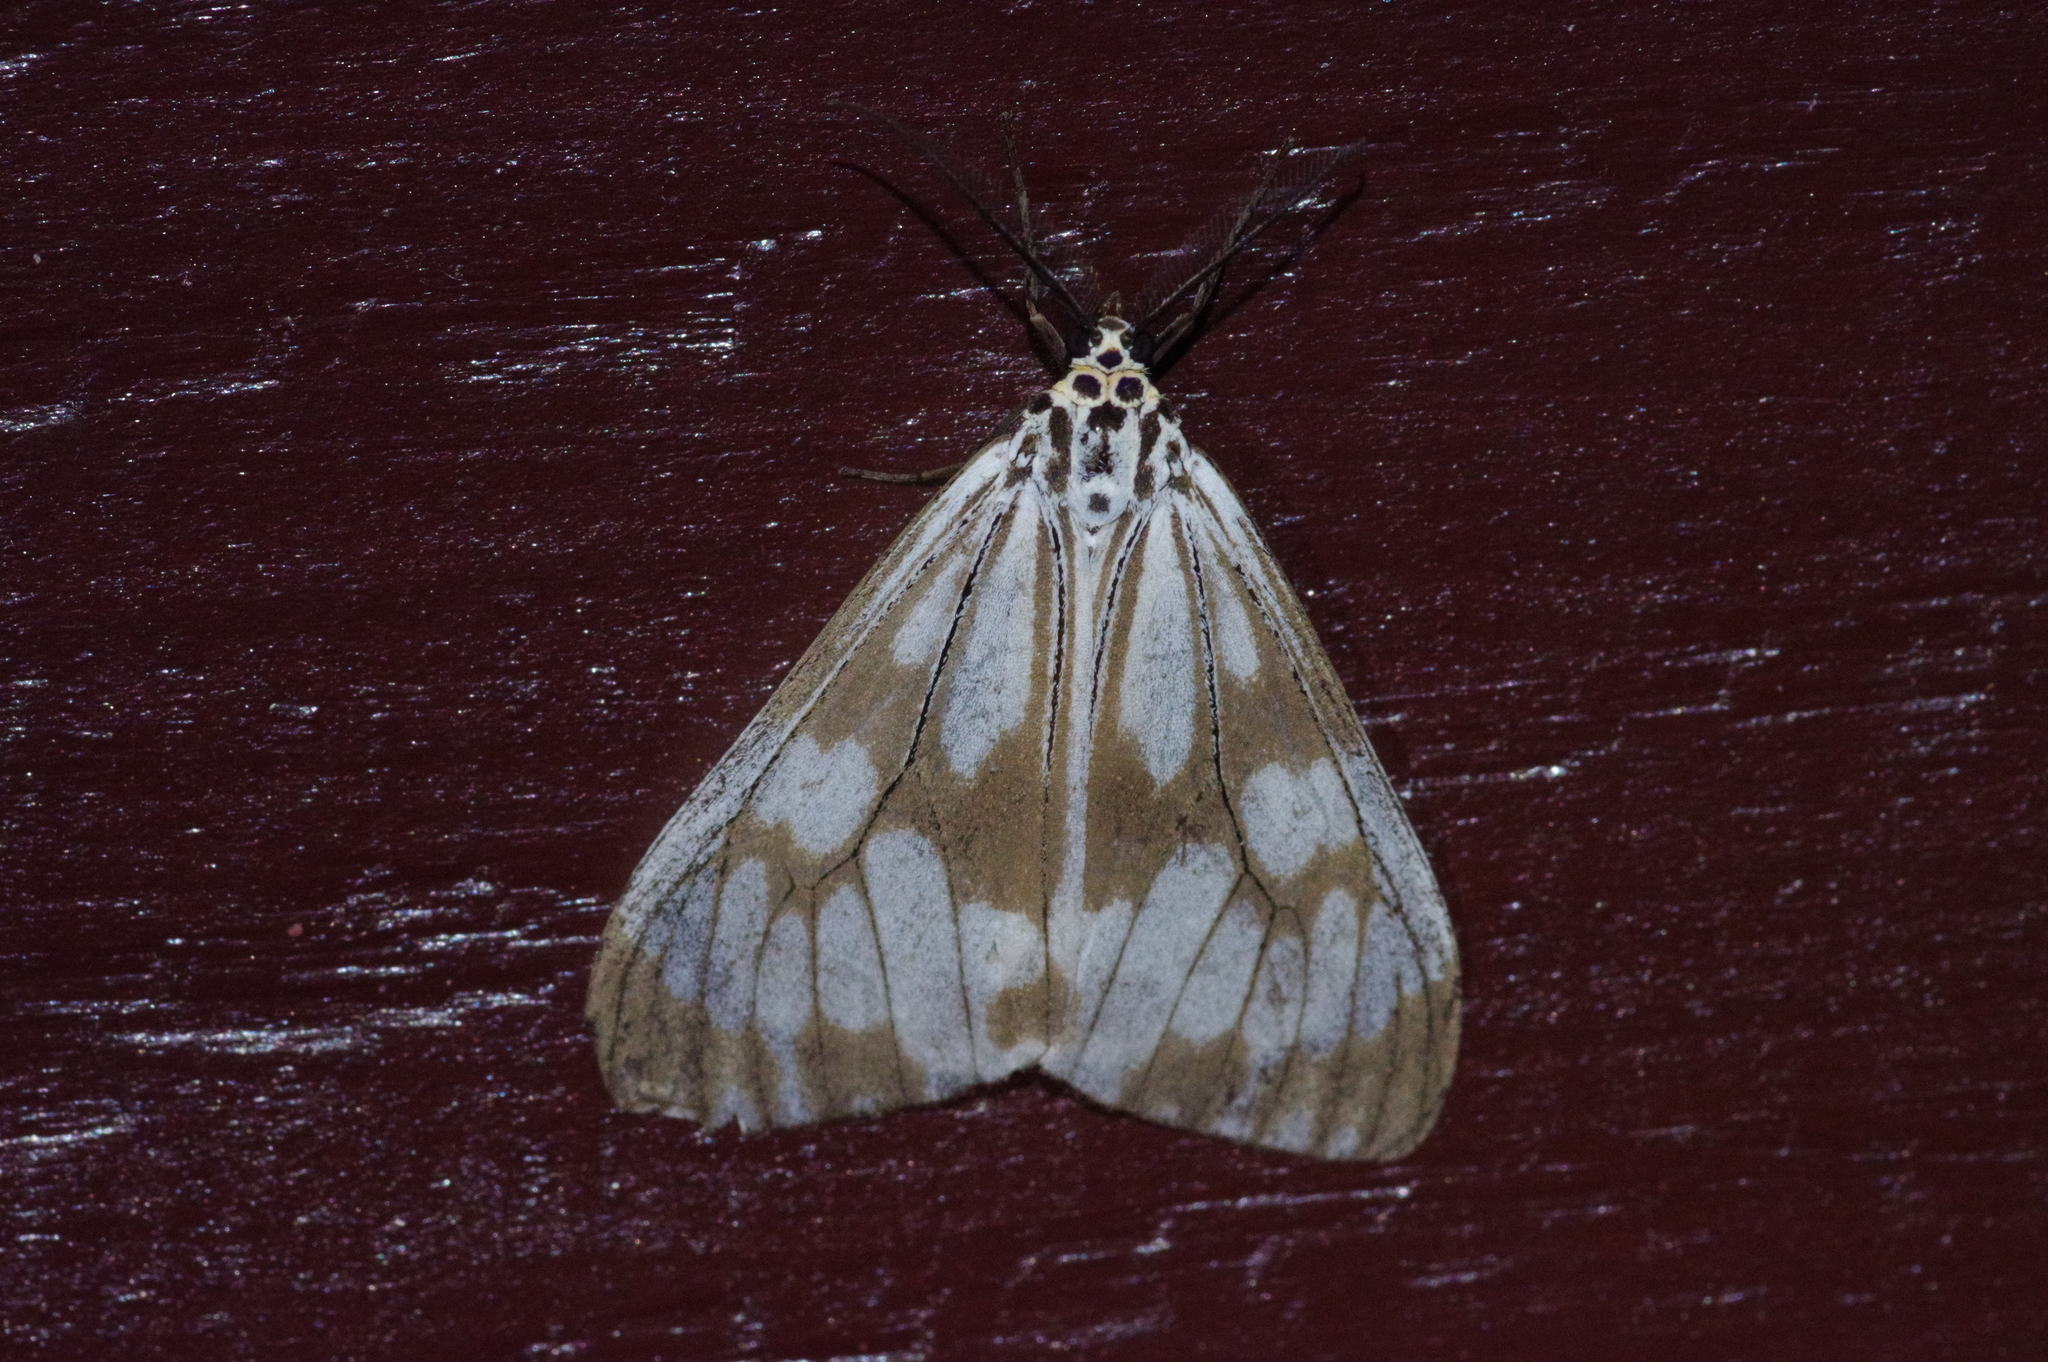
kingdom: Animalia
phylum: Arthropoda
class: Insecta
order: Lepidoptera
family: Erebidae
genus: Nyctemera
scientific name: Nyctemera adversata
